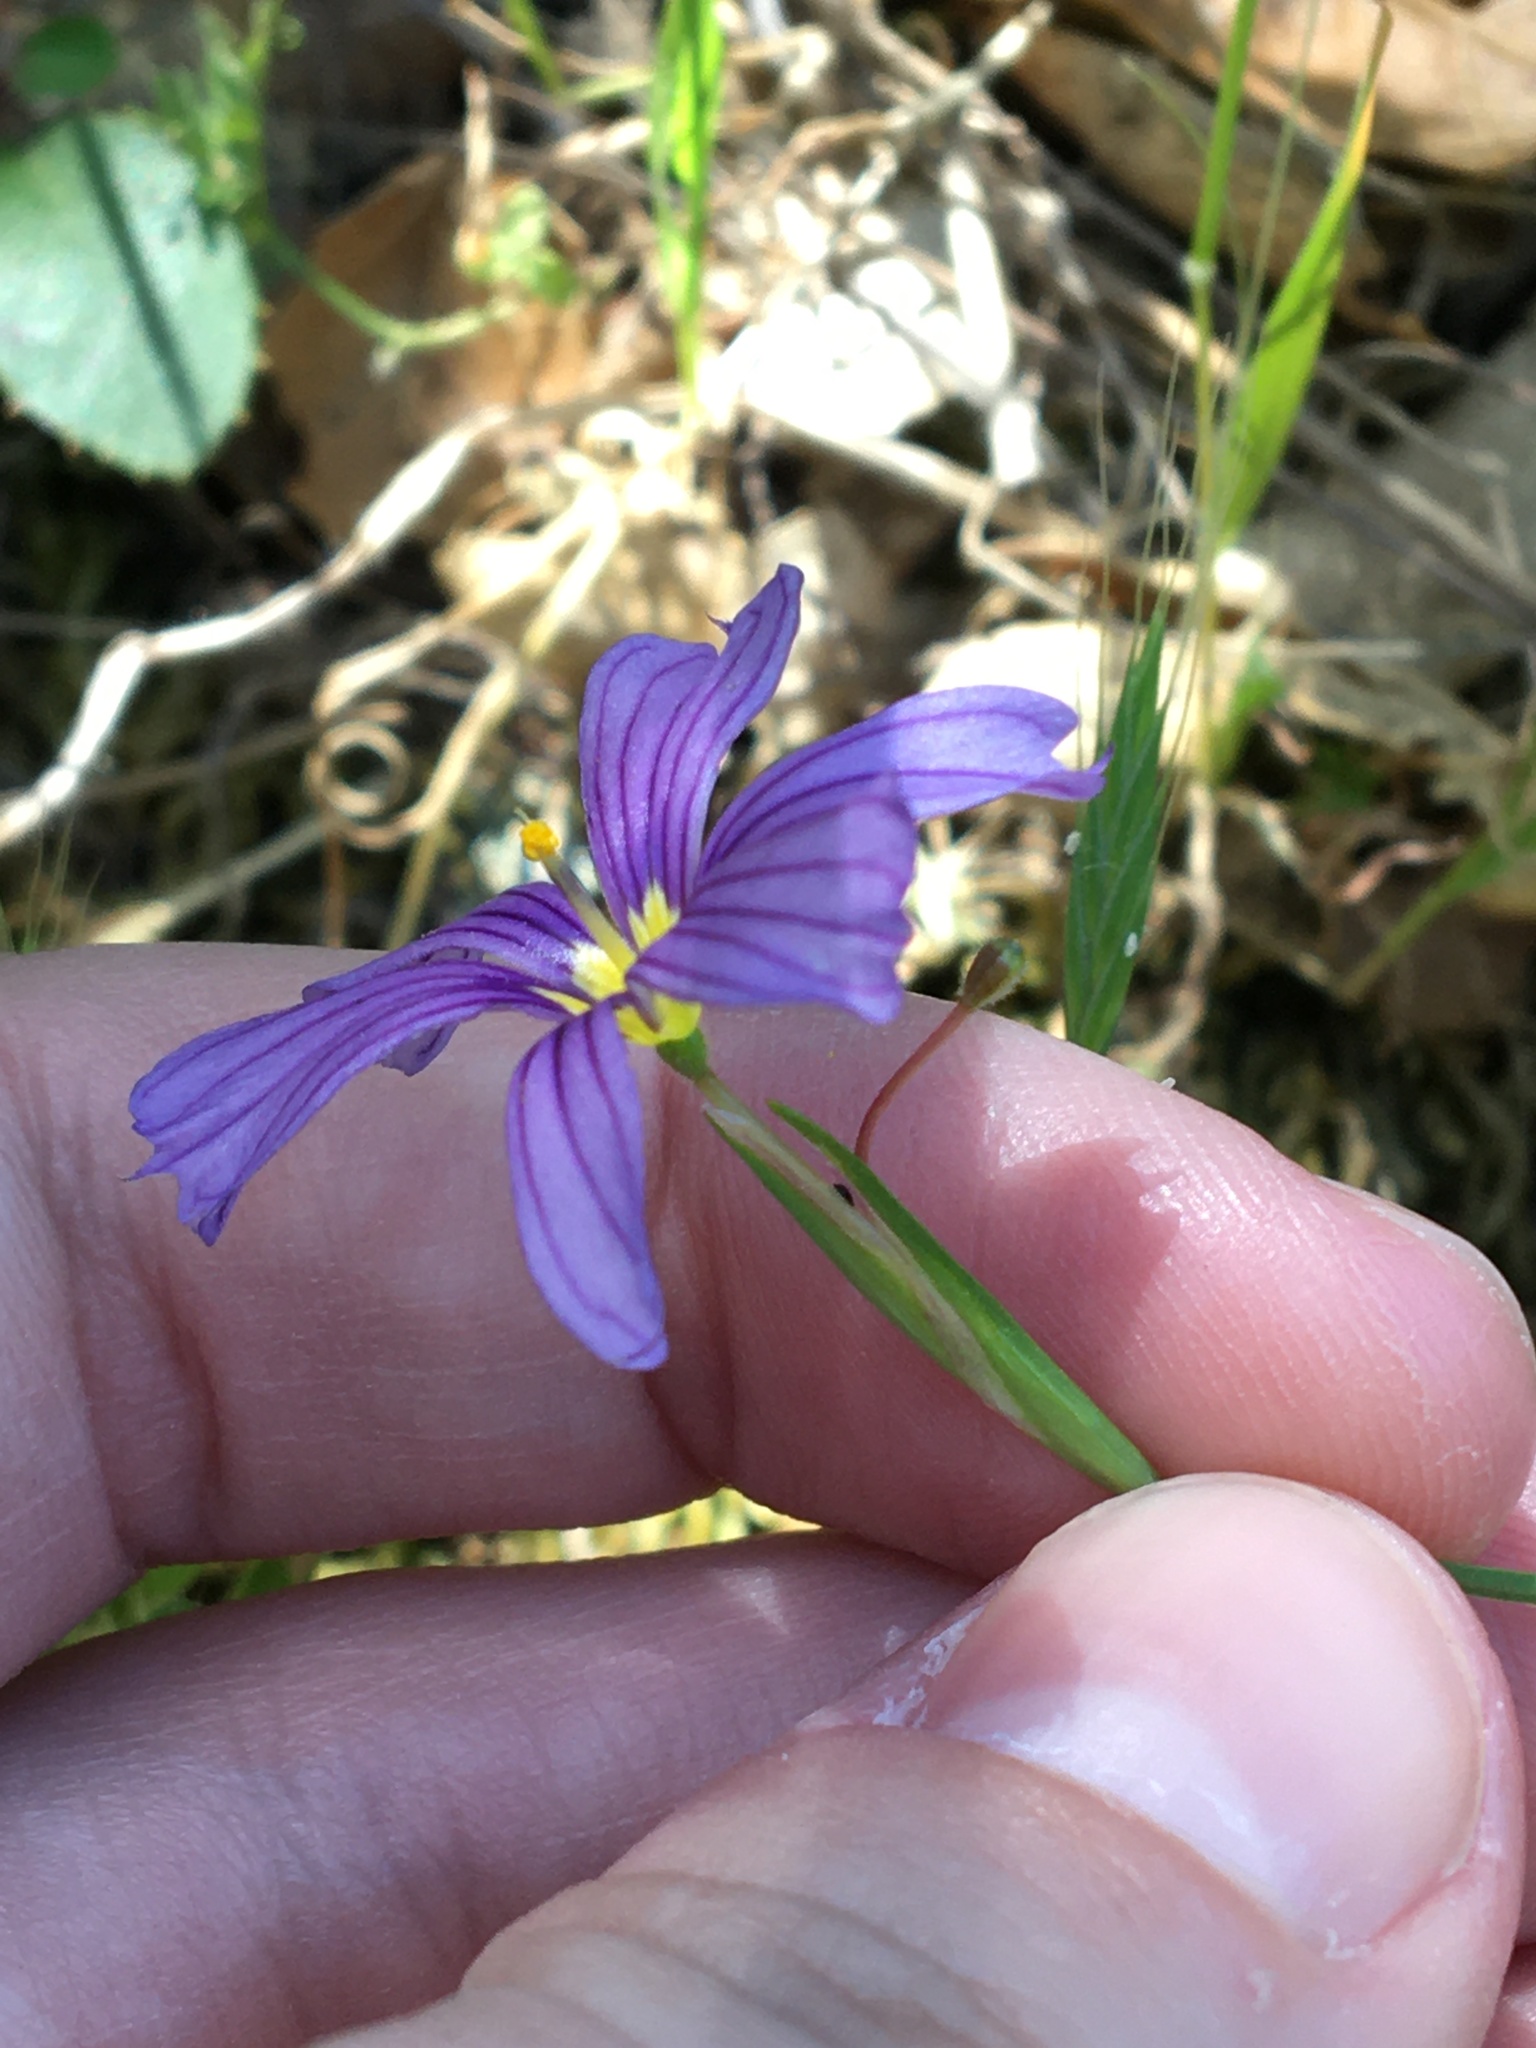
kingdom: Plantae
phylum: Tracheophyta
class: Liliopsida
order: Asparagales
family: Iridaceae
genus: Sisyrinchium
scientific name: Sisyrinchium bellum
